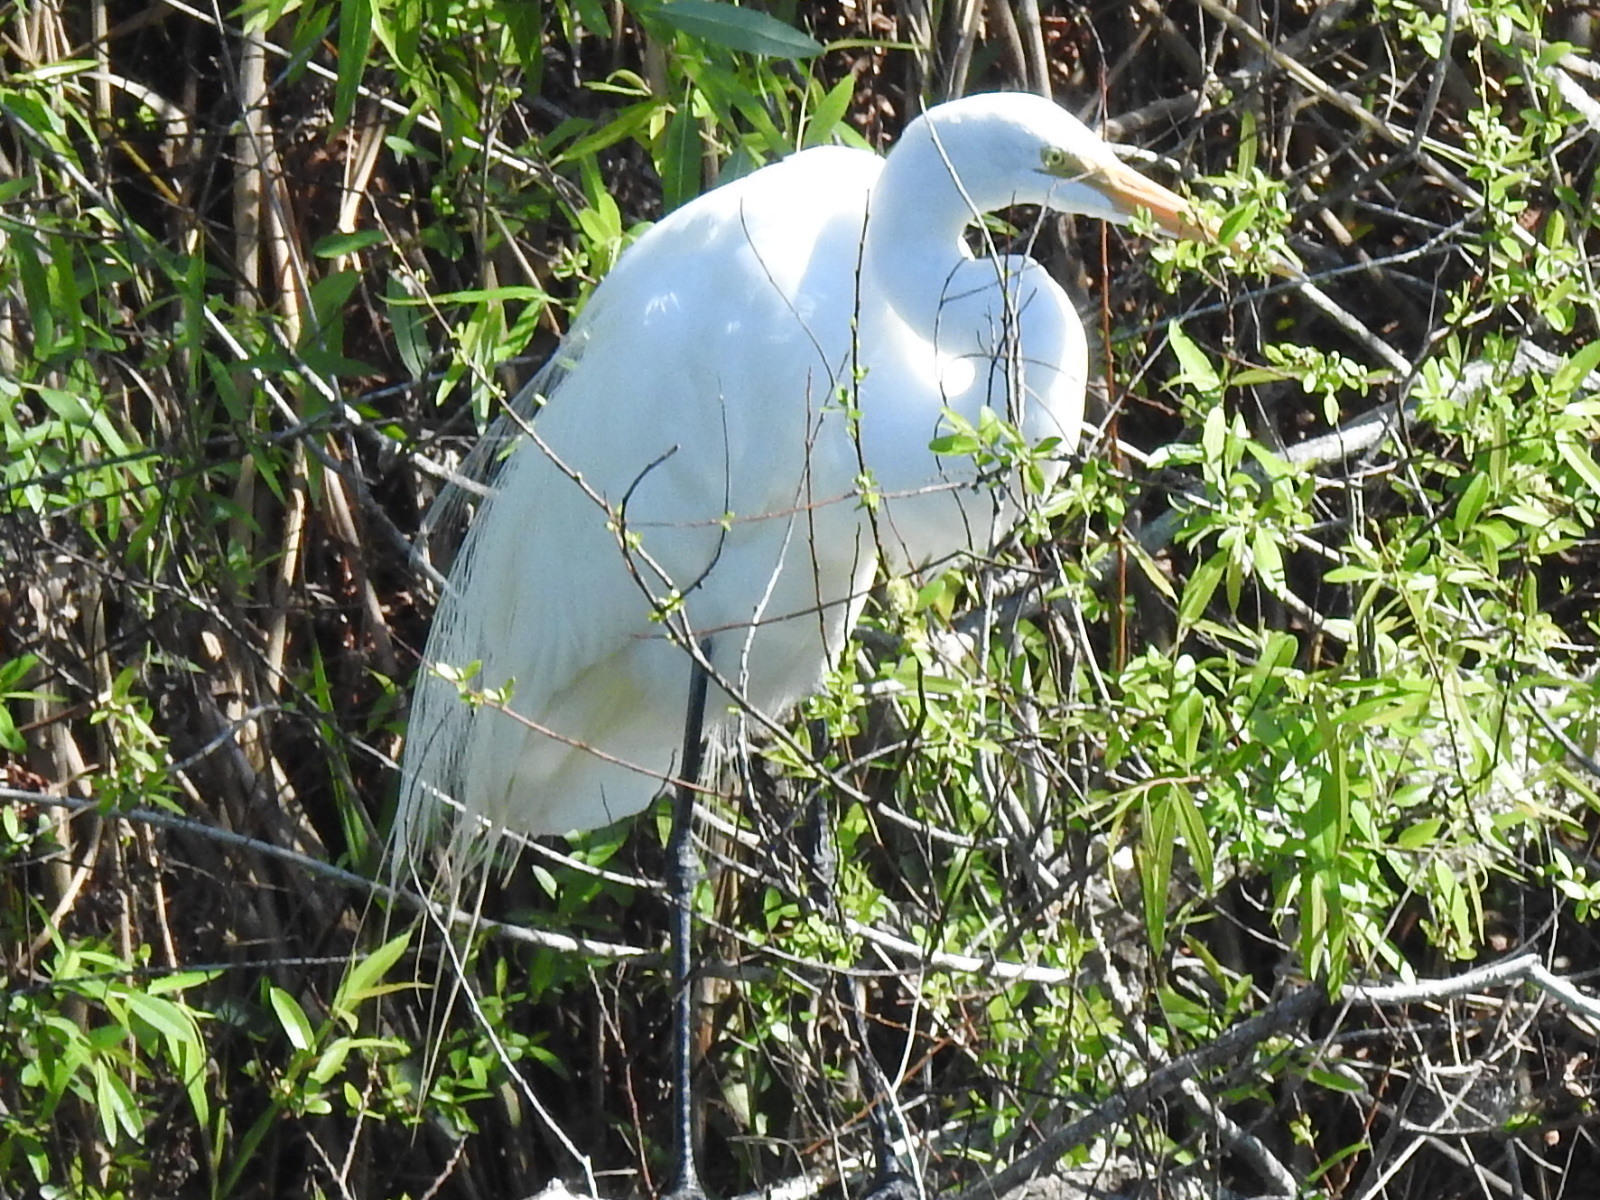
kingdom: Animalia
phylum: Chordata
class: Aves
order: Pelecaniformes
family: Ardeidae
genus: Ardea
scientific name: Ardea alba
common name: Great egret
